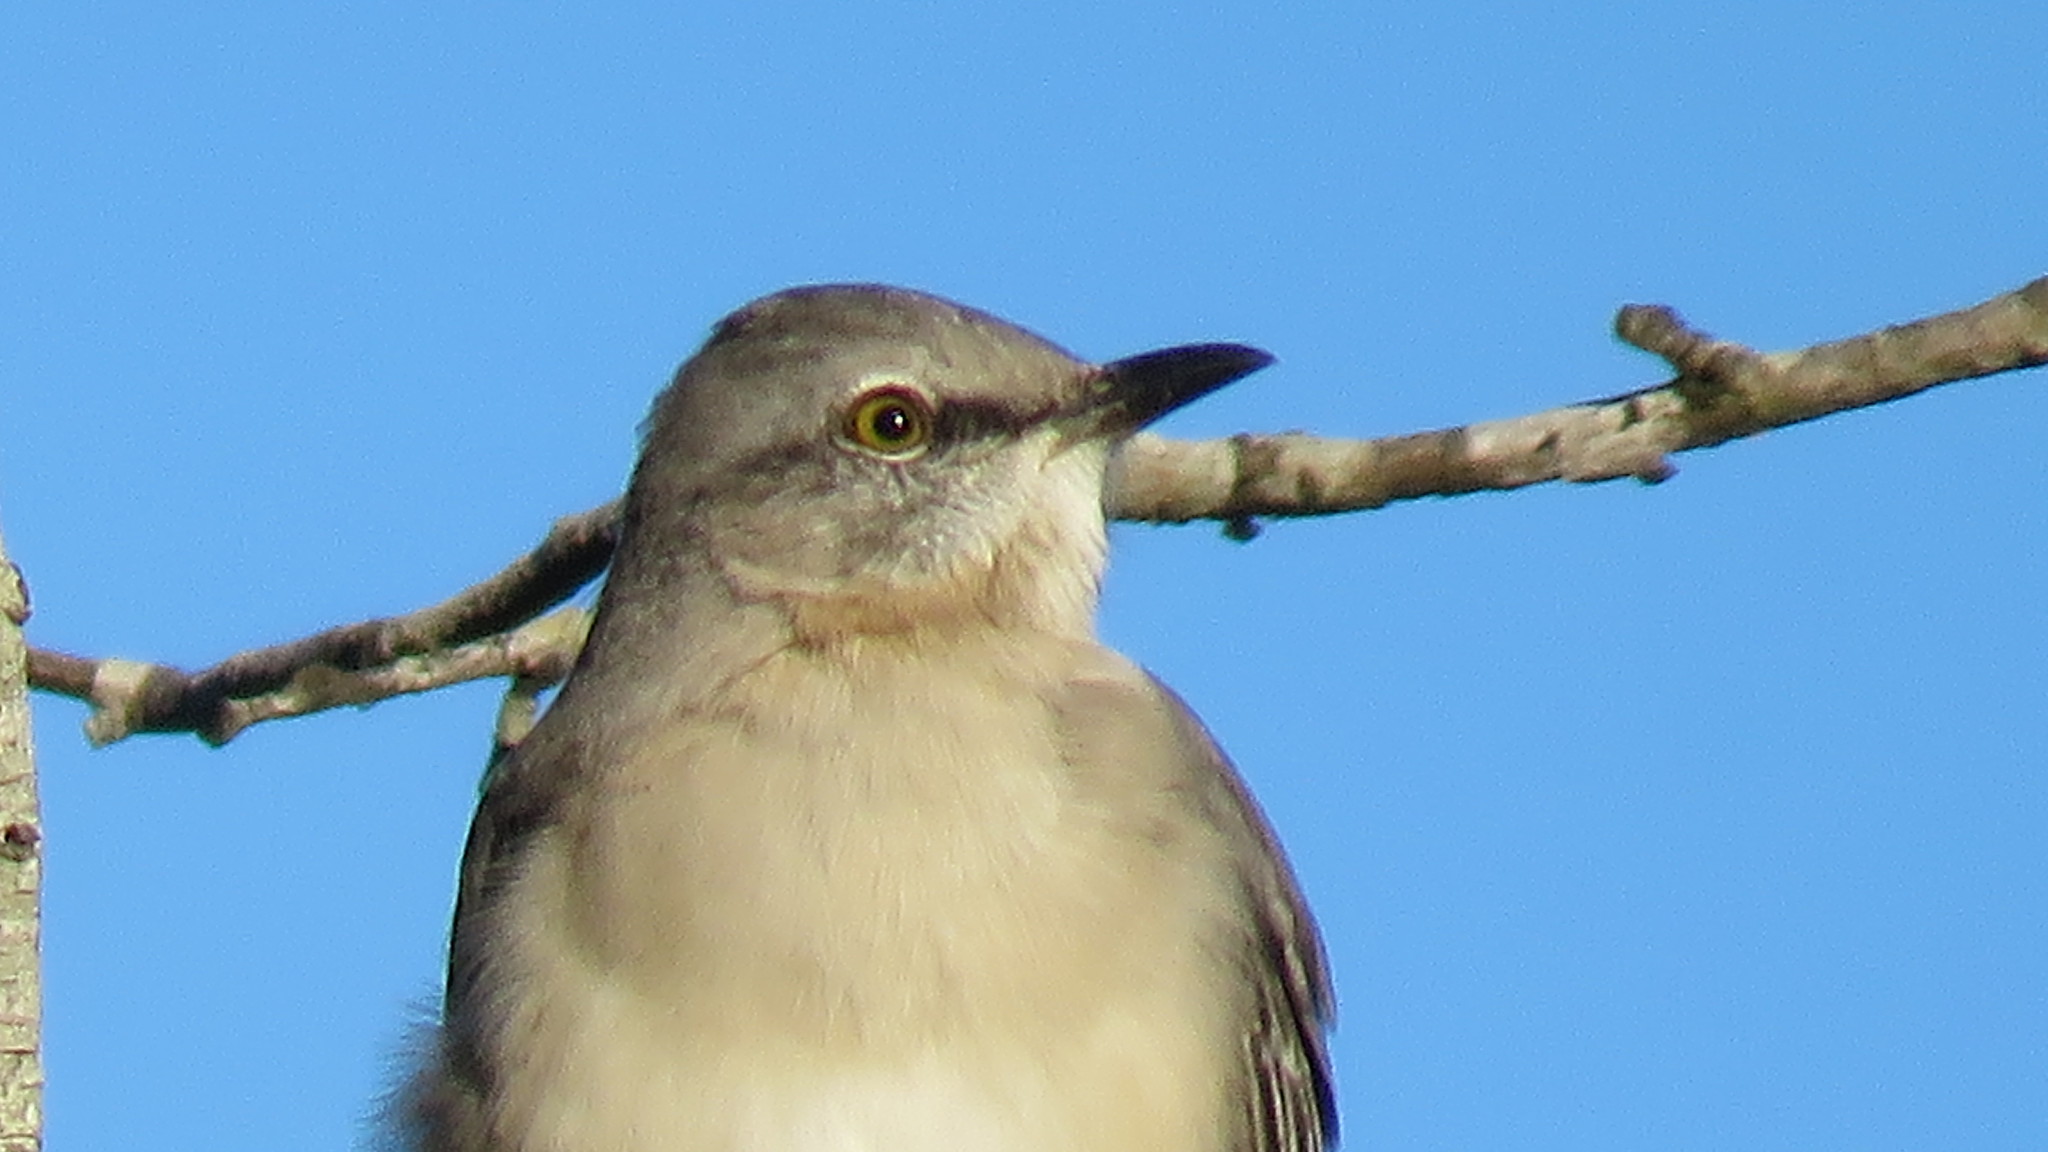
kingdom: Animalia
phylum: Chordata
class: Aves
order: Passeriformes
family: Mimidae
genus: Mimus
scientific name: Mimus polyglottos
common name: Northern mockingbird
